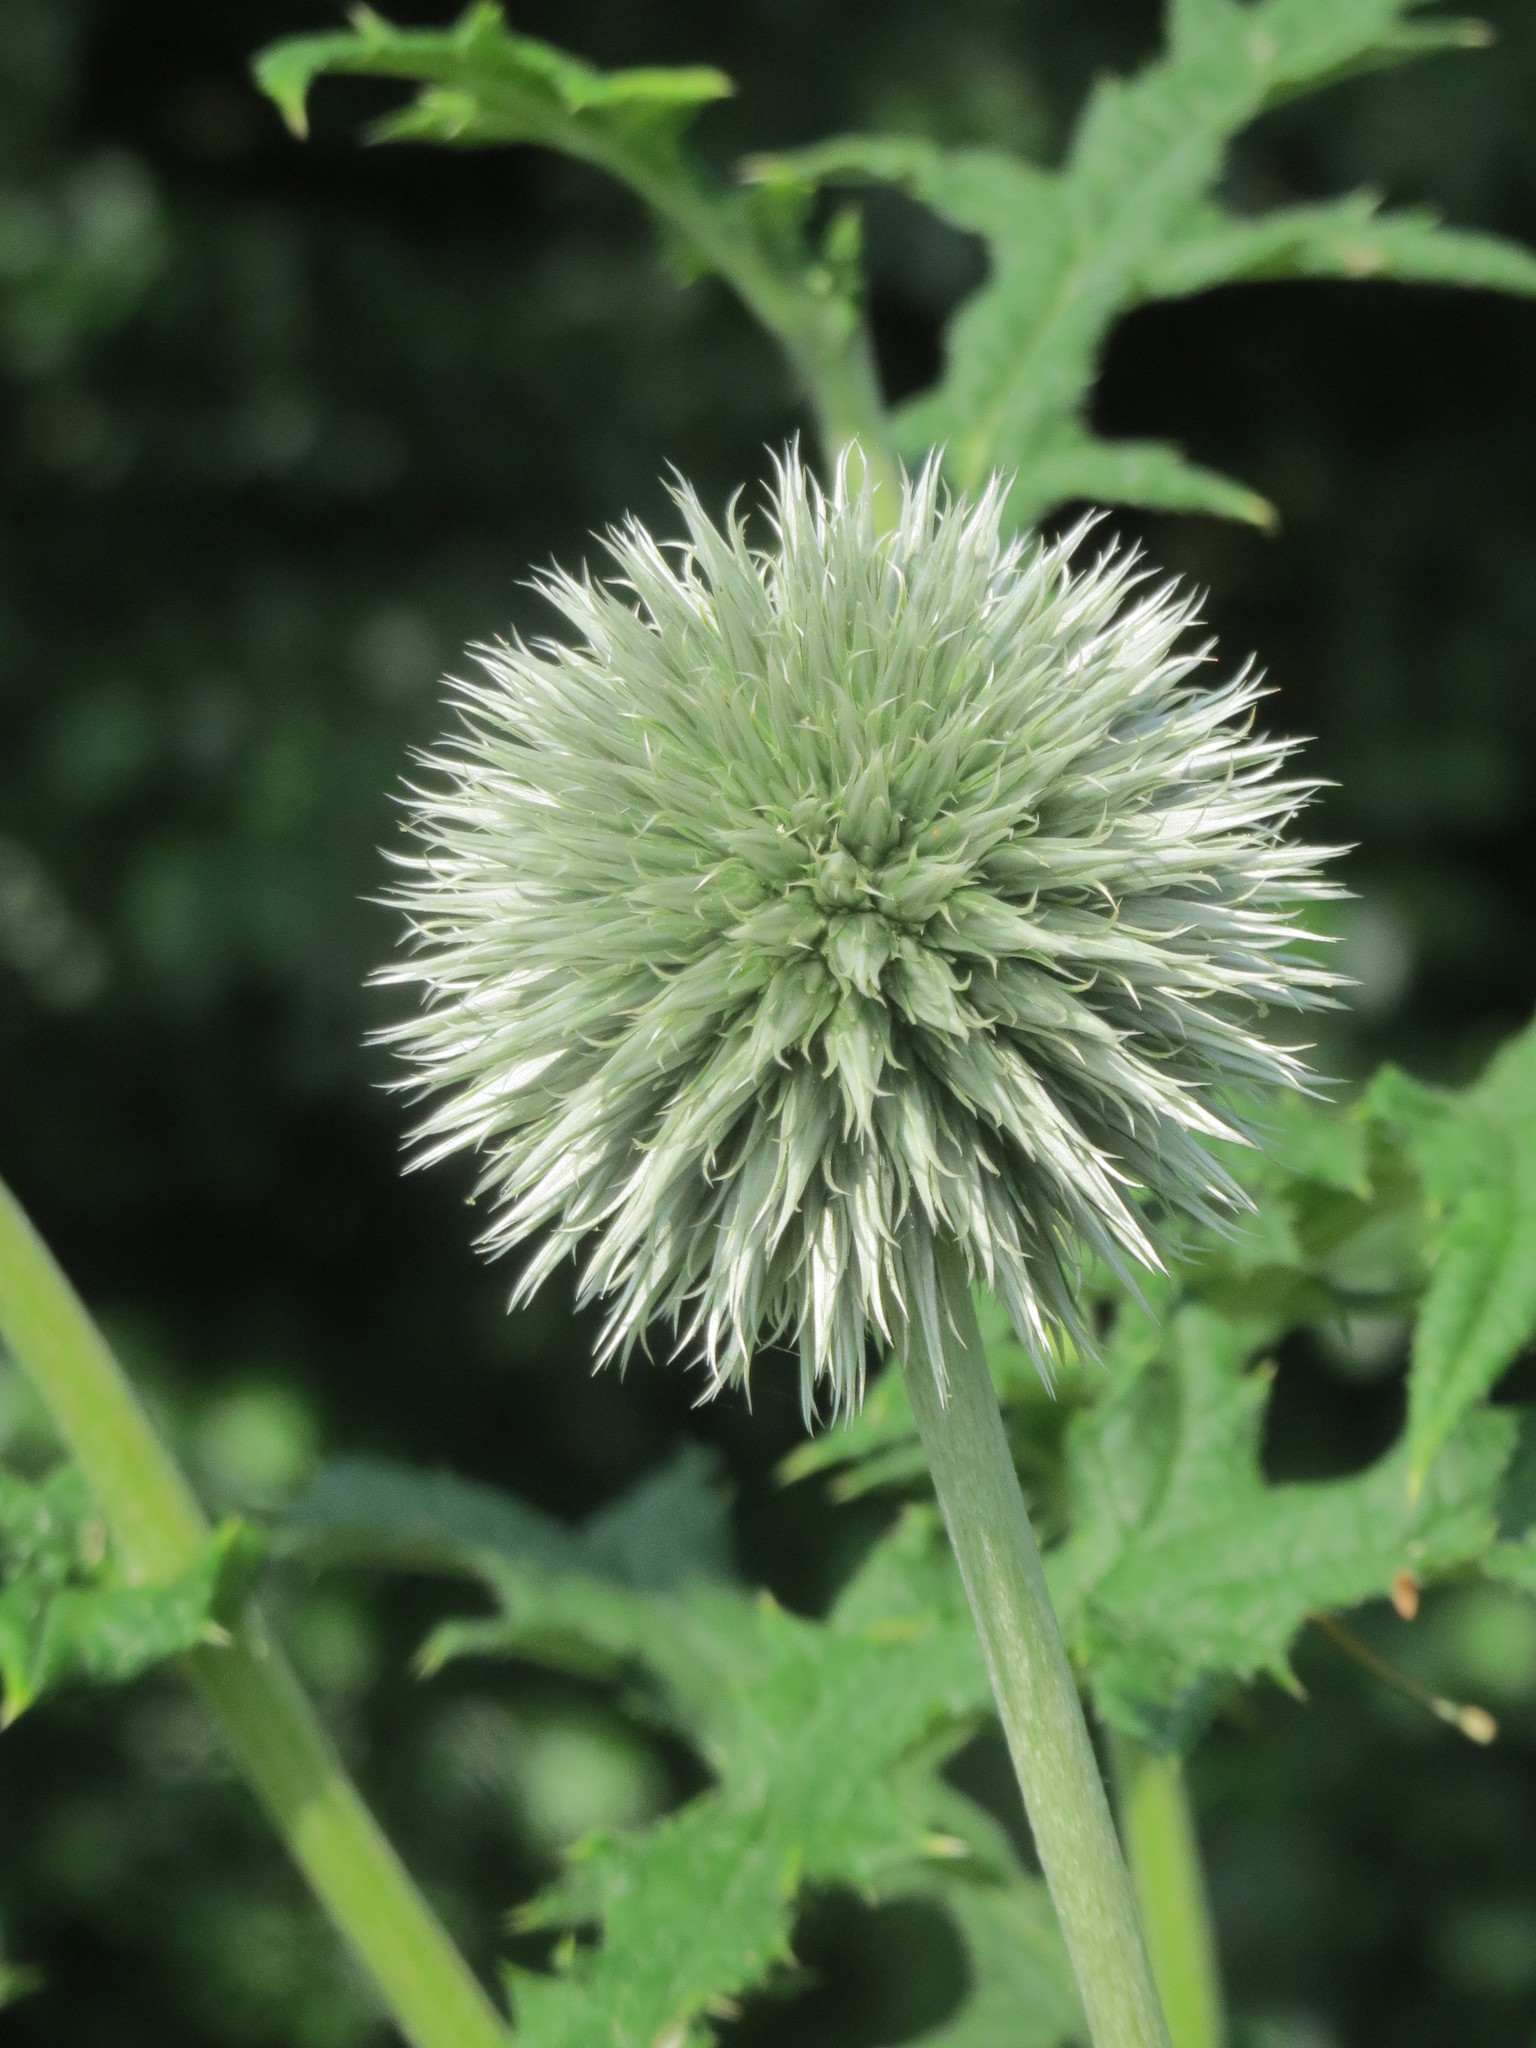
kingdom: Plantae
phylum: Tracheophyta
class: Magnoliopsida
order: Asterales
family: Asteraceae
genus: Echinops
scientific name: Echinops exaltatus
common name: Globe-thistle
